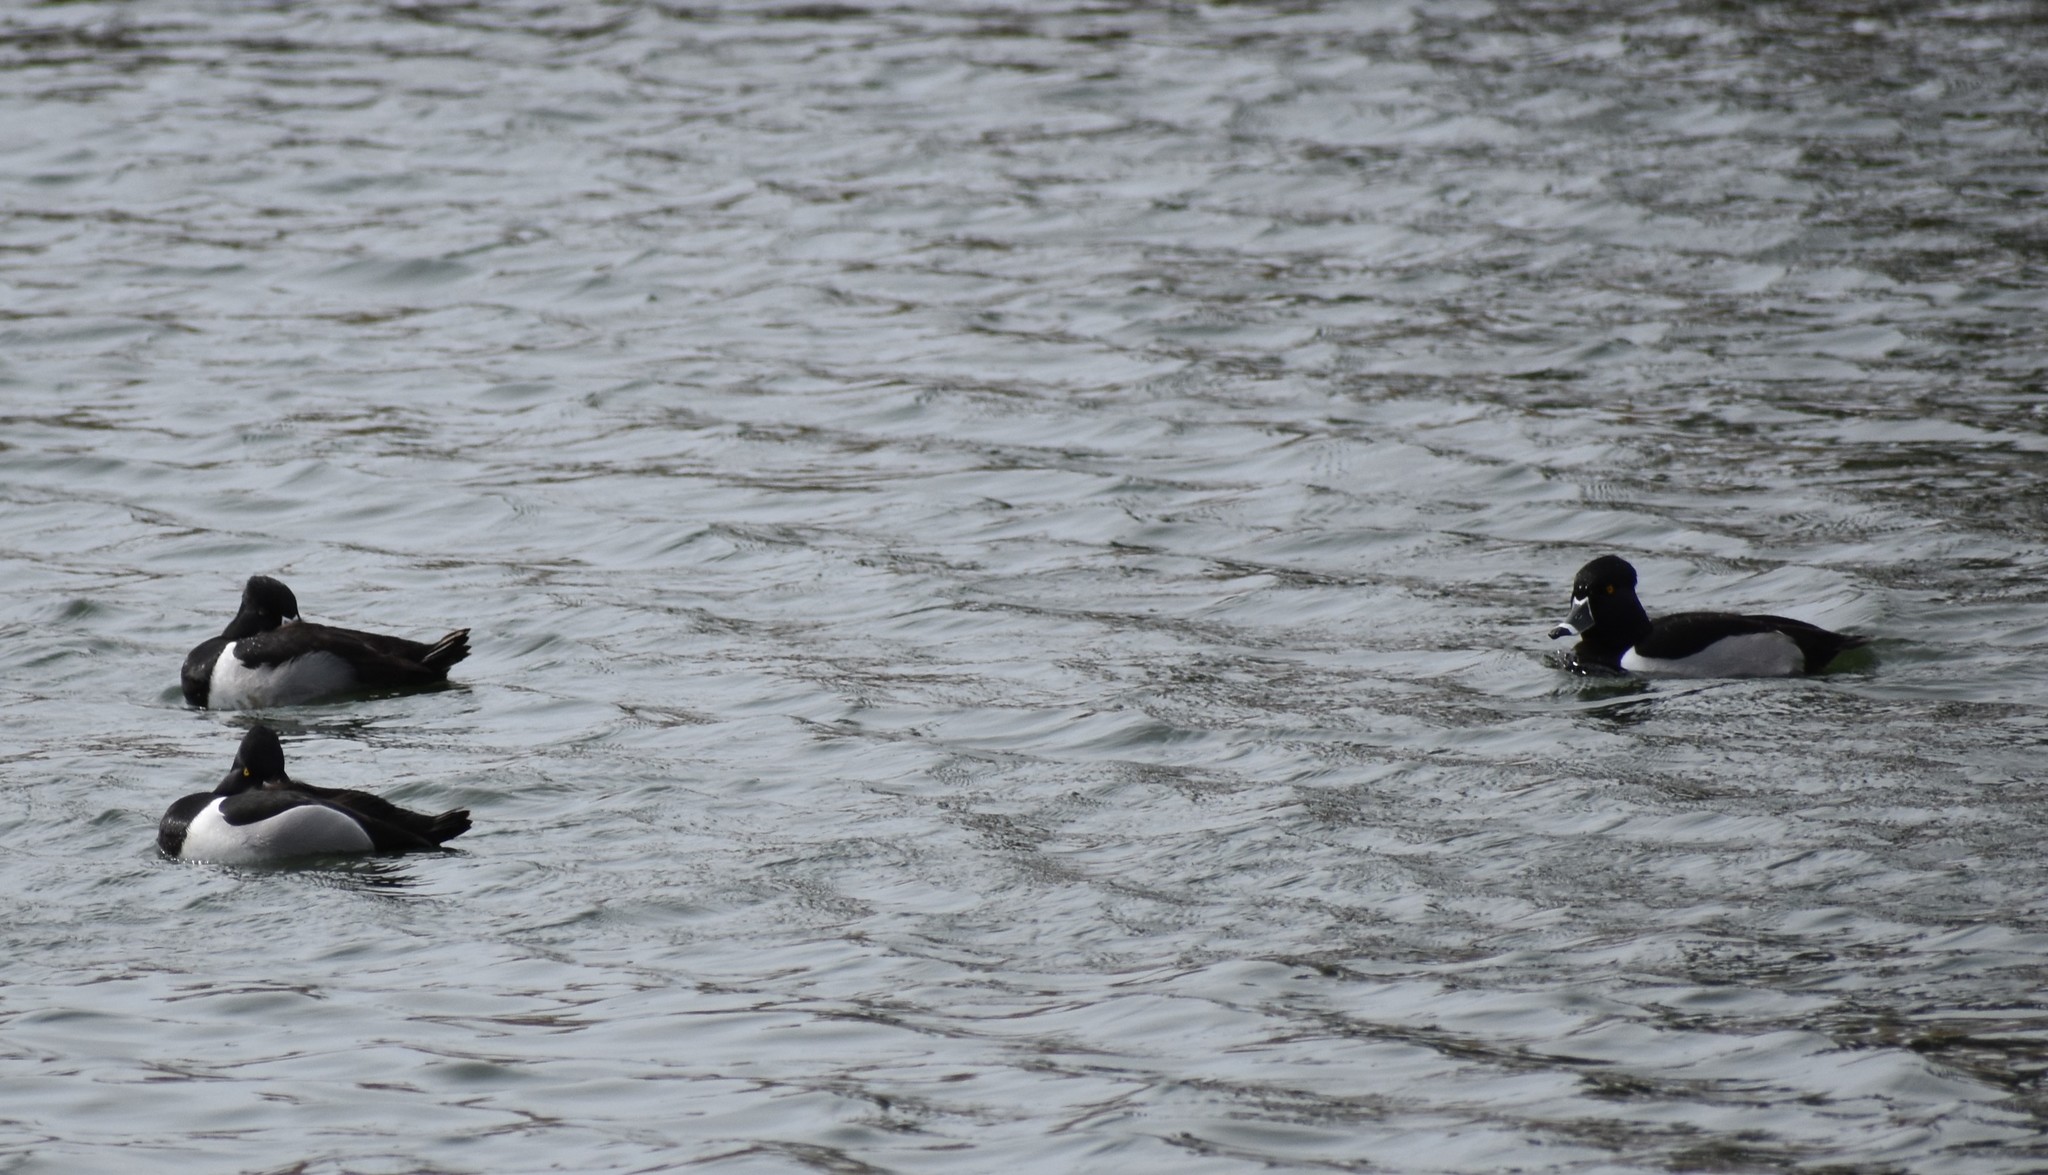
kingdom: Animalia
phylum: Chordata
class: Aves
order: Anseriformes
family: Anatidae
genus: Aythya
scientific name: Aythya collaris
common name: Ring-necked duck
